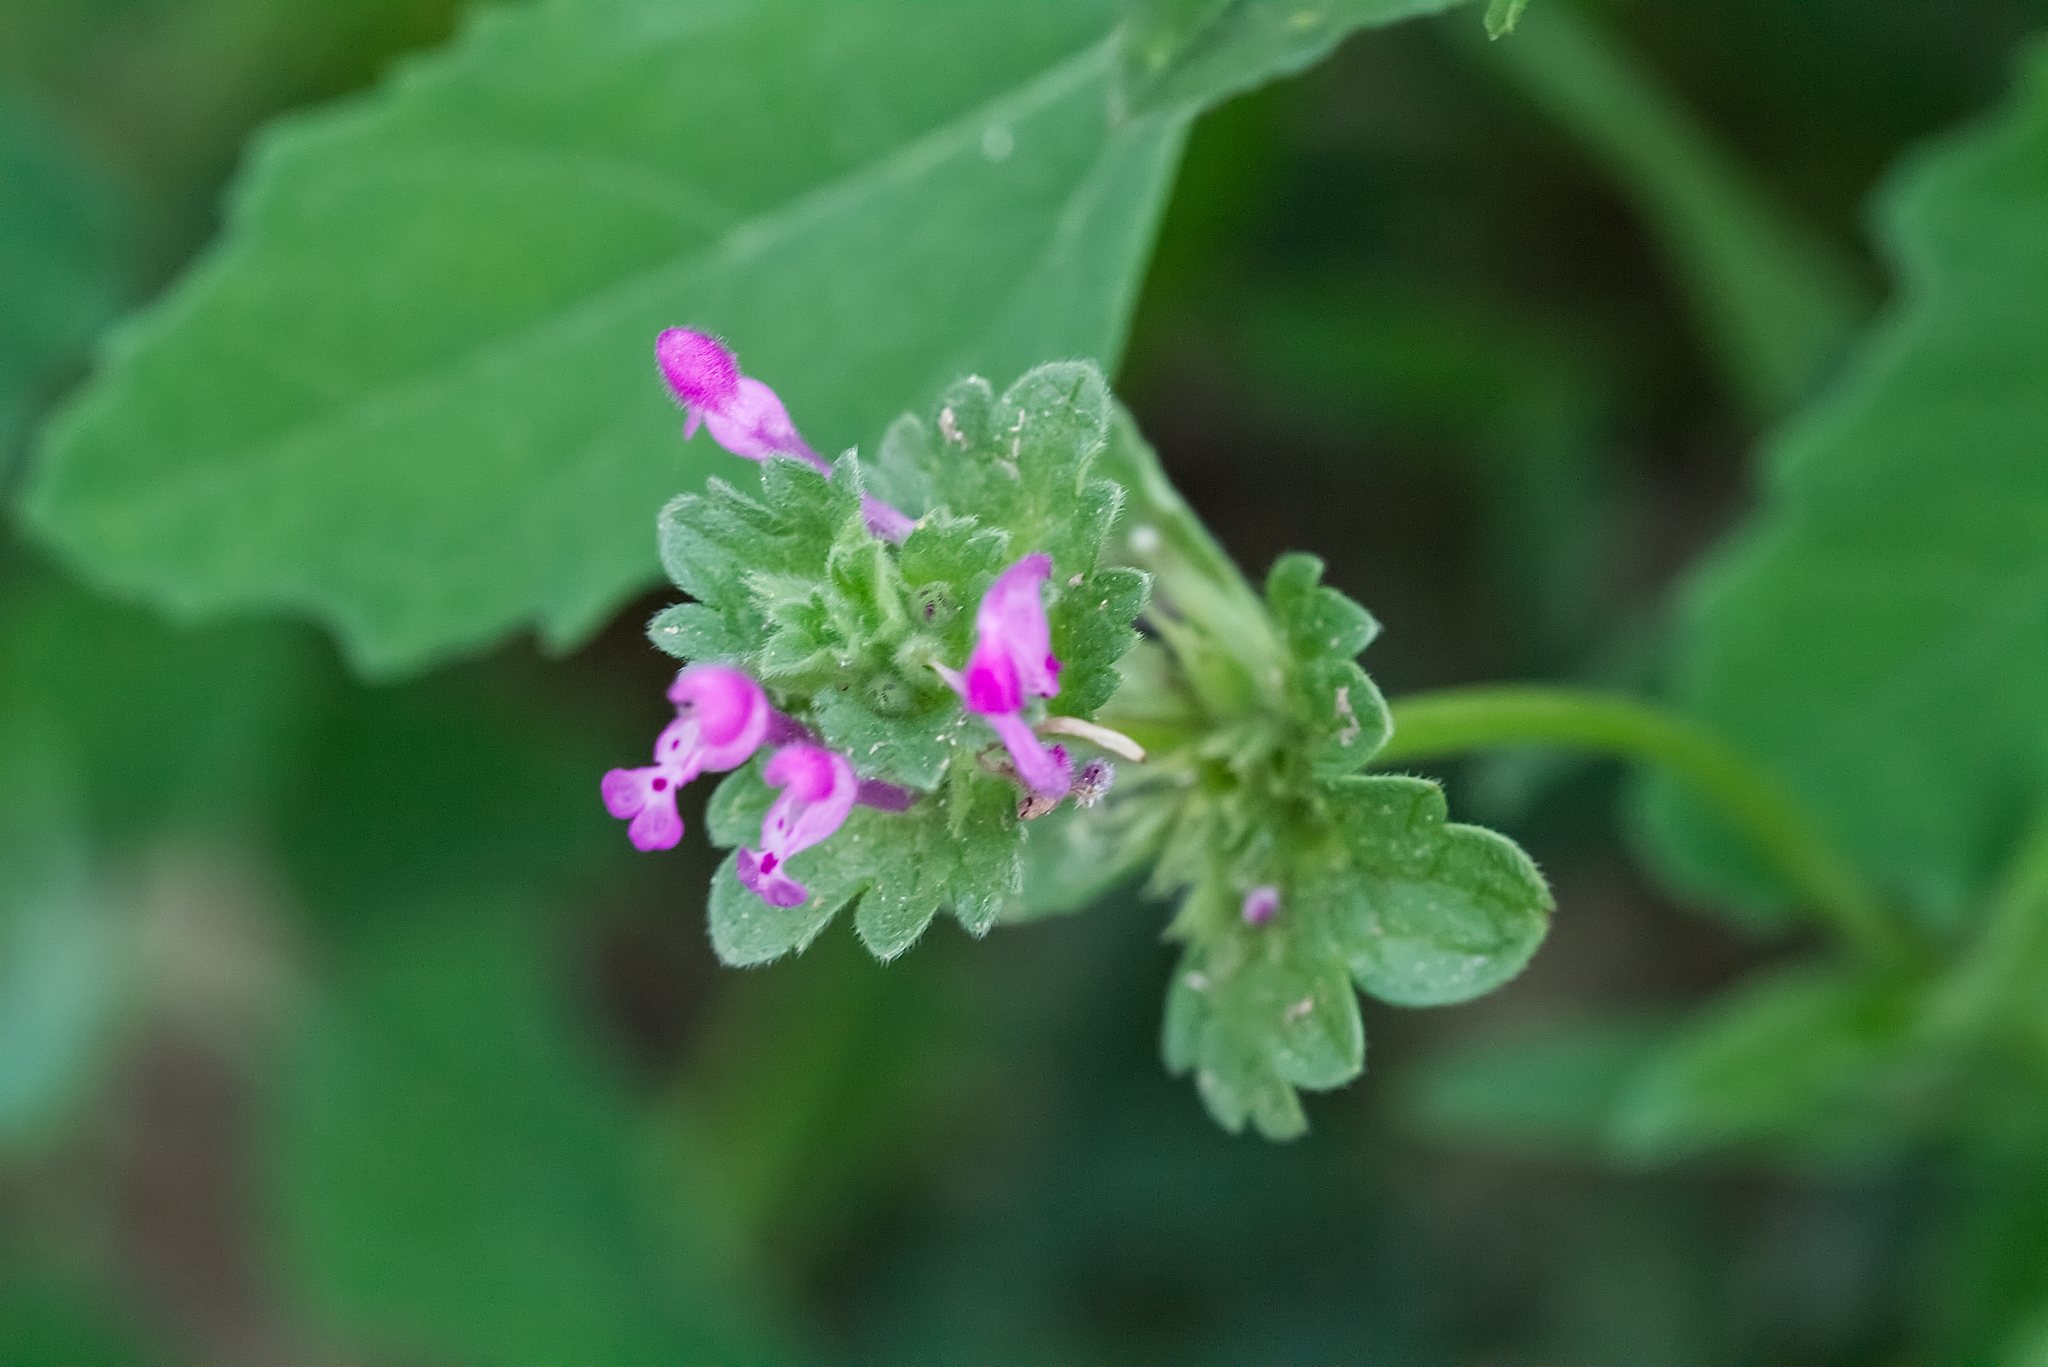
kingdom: Plantae
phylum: Tracheophyta
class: Magnoliopsida
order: Lamiales
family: Lamiaceae
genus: Lamium
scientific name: Lamium amplexicaule
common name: Henbit dead-nettle
